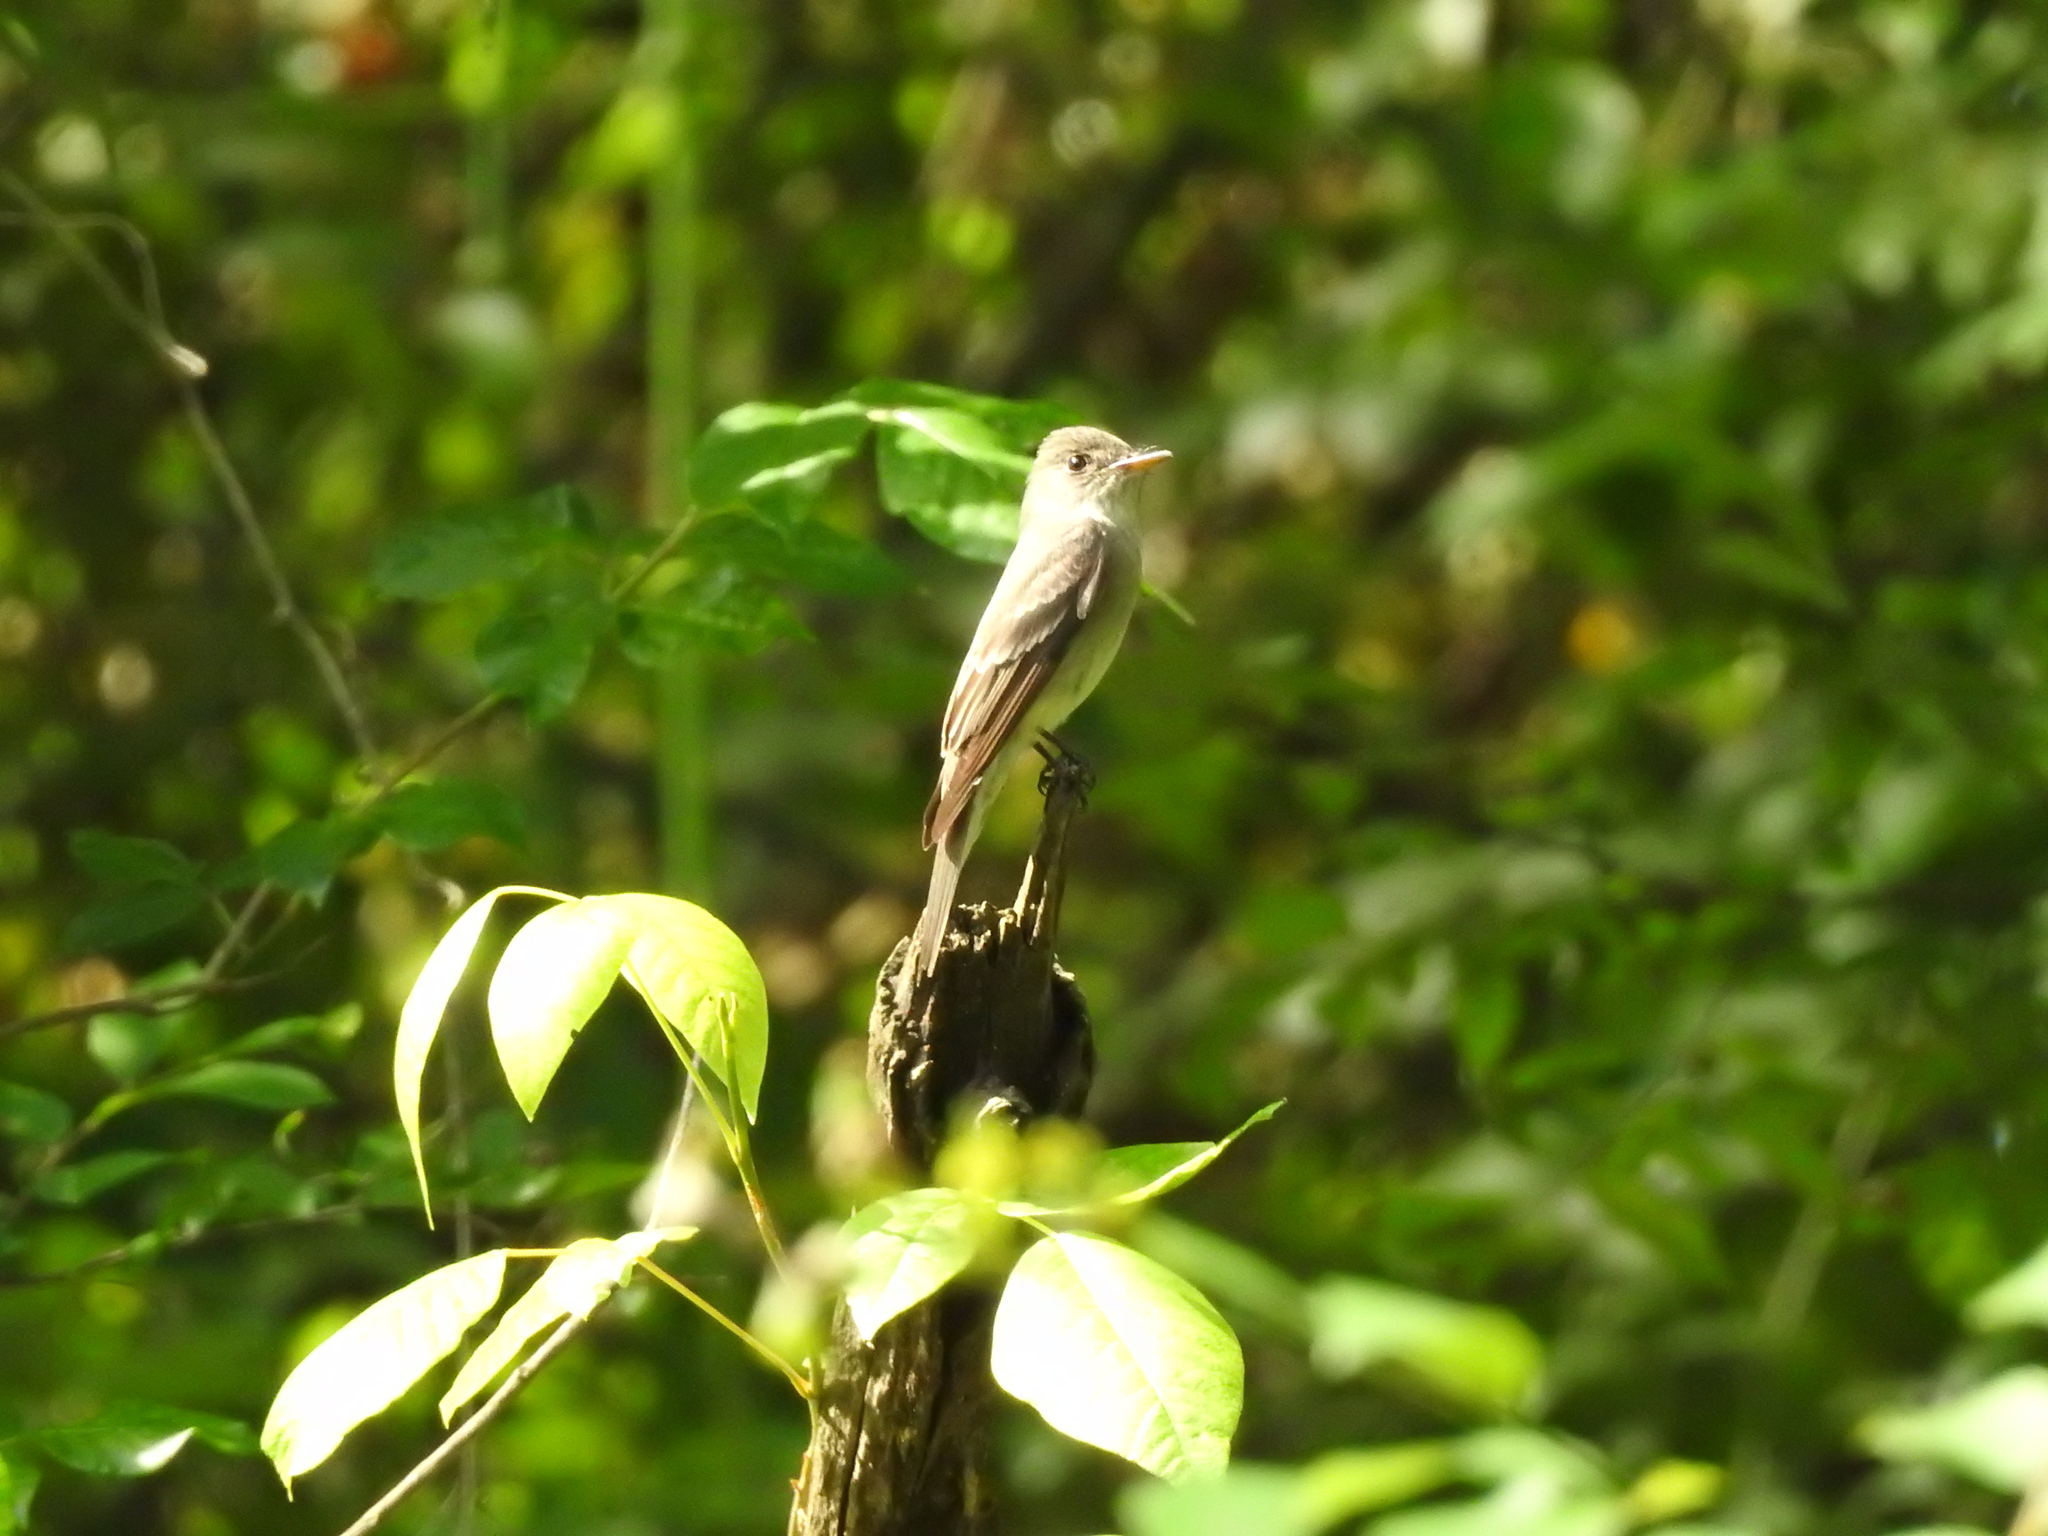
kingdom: Animalia
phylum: Chordata
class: Aves
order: Passeriformes
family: Tyrannidae
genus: Contopus
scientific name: Contopus virens
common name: Eastern wood-pewee
